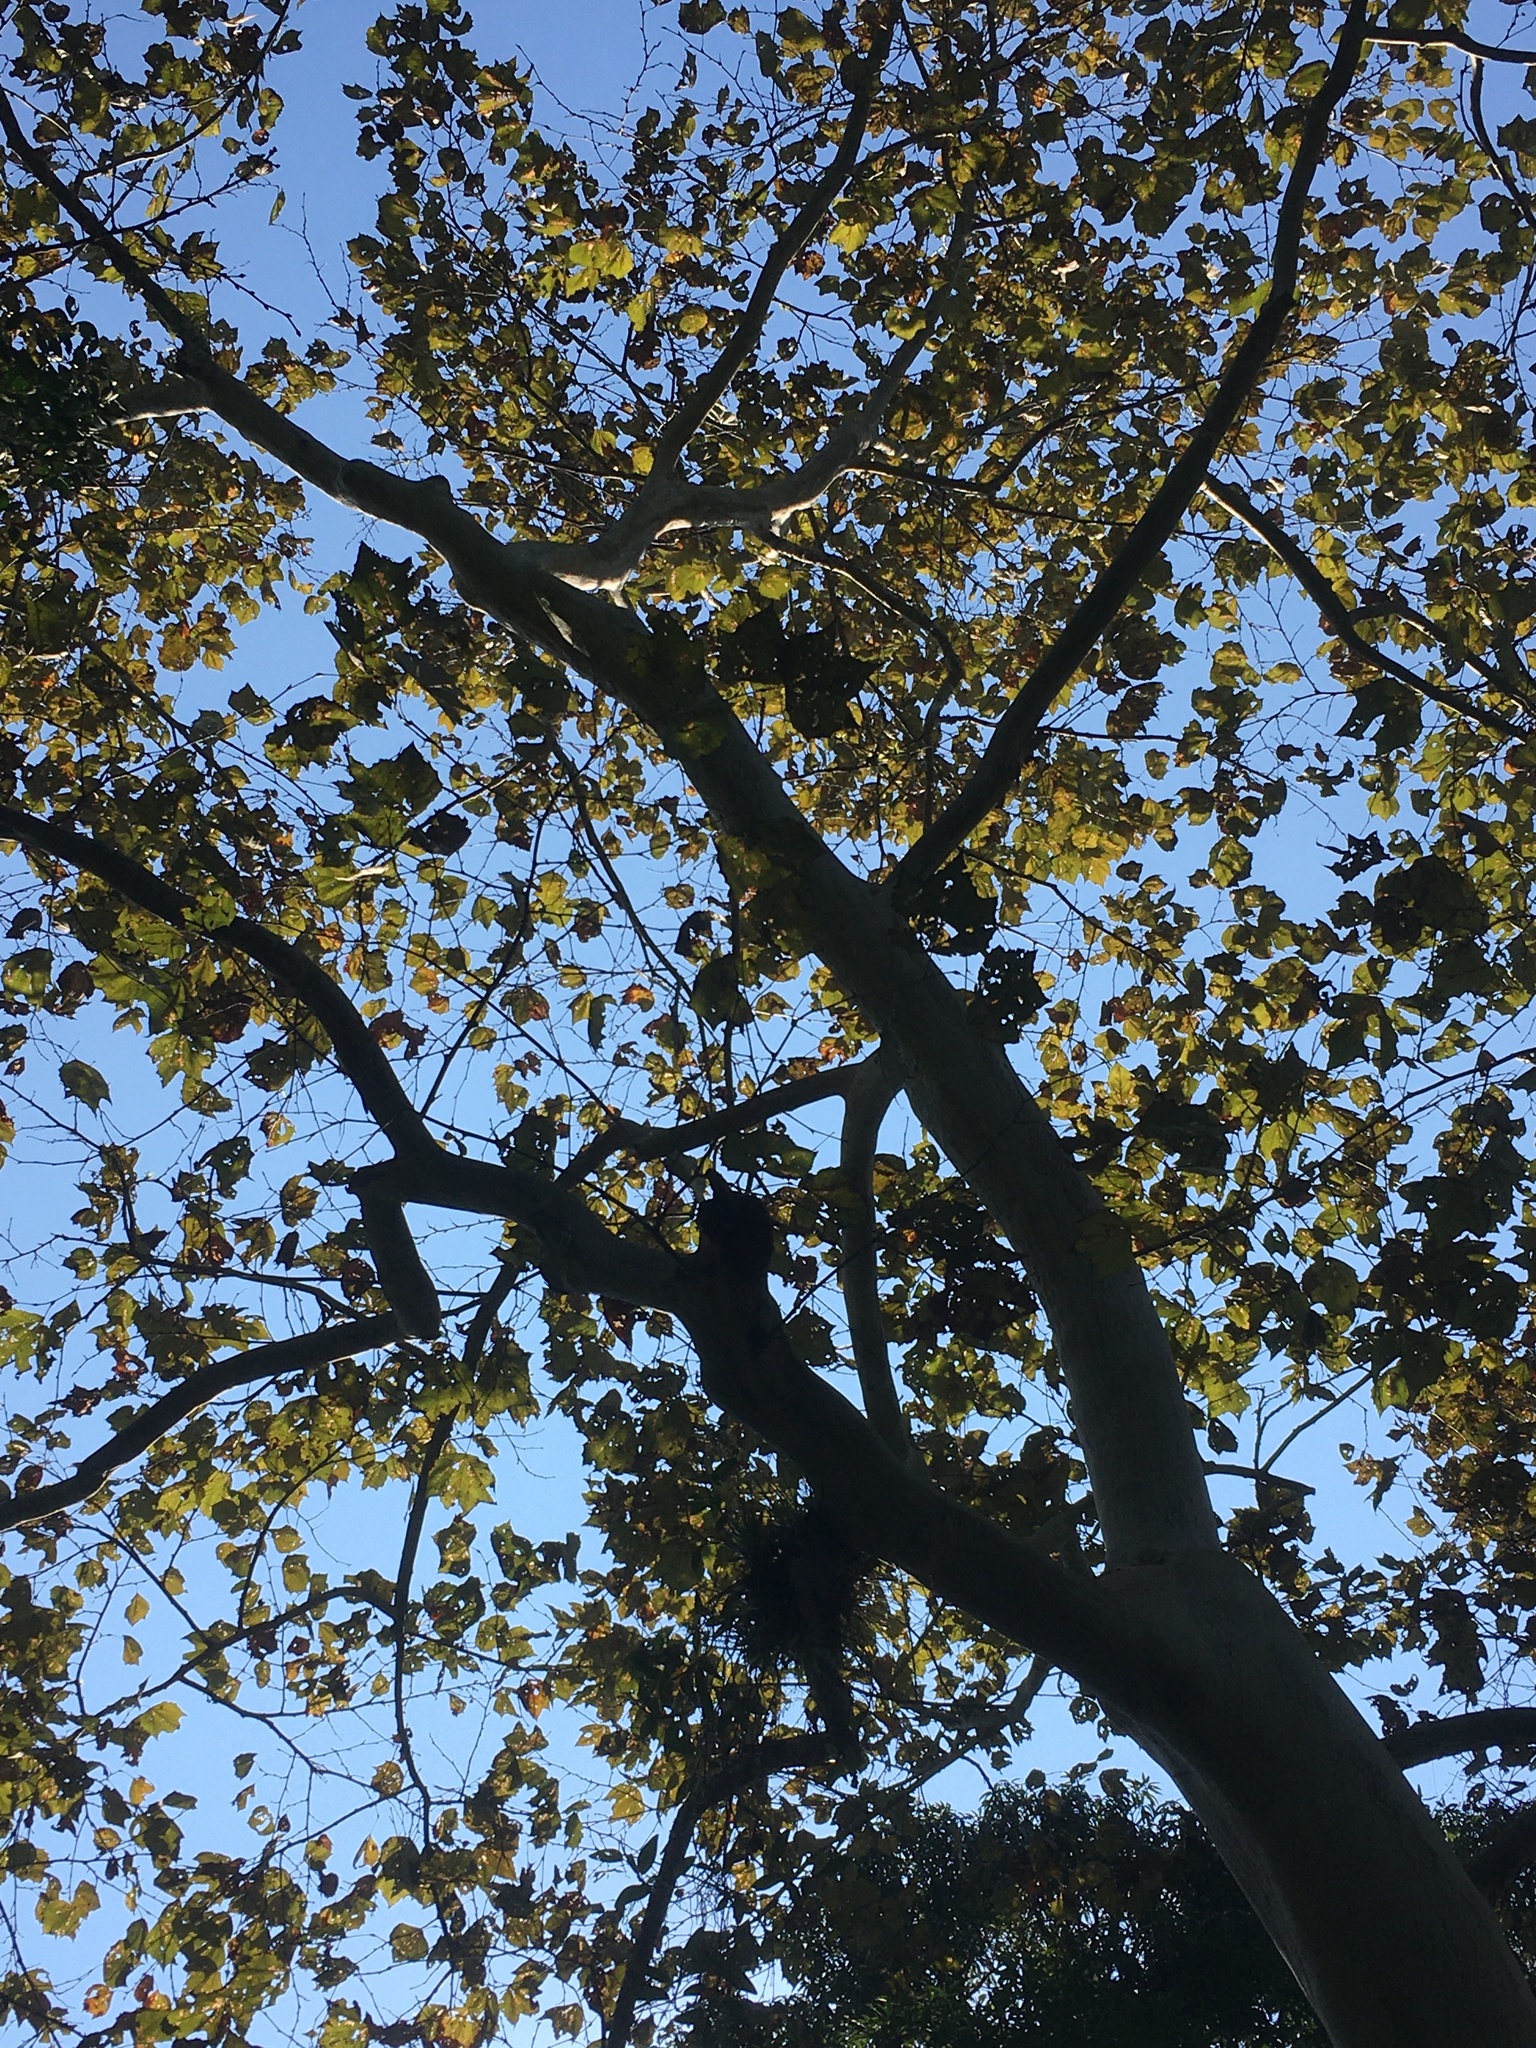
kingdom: Plantae
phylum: Tracheophyta
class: Magnoliopsida
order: Proteales
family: Platanaceae
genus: Platanus
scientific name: Platanus mexicana
